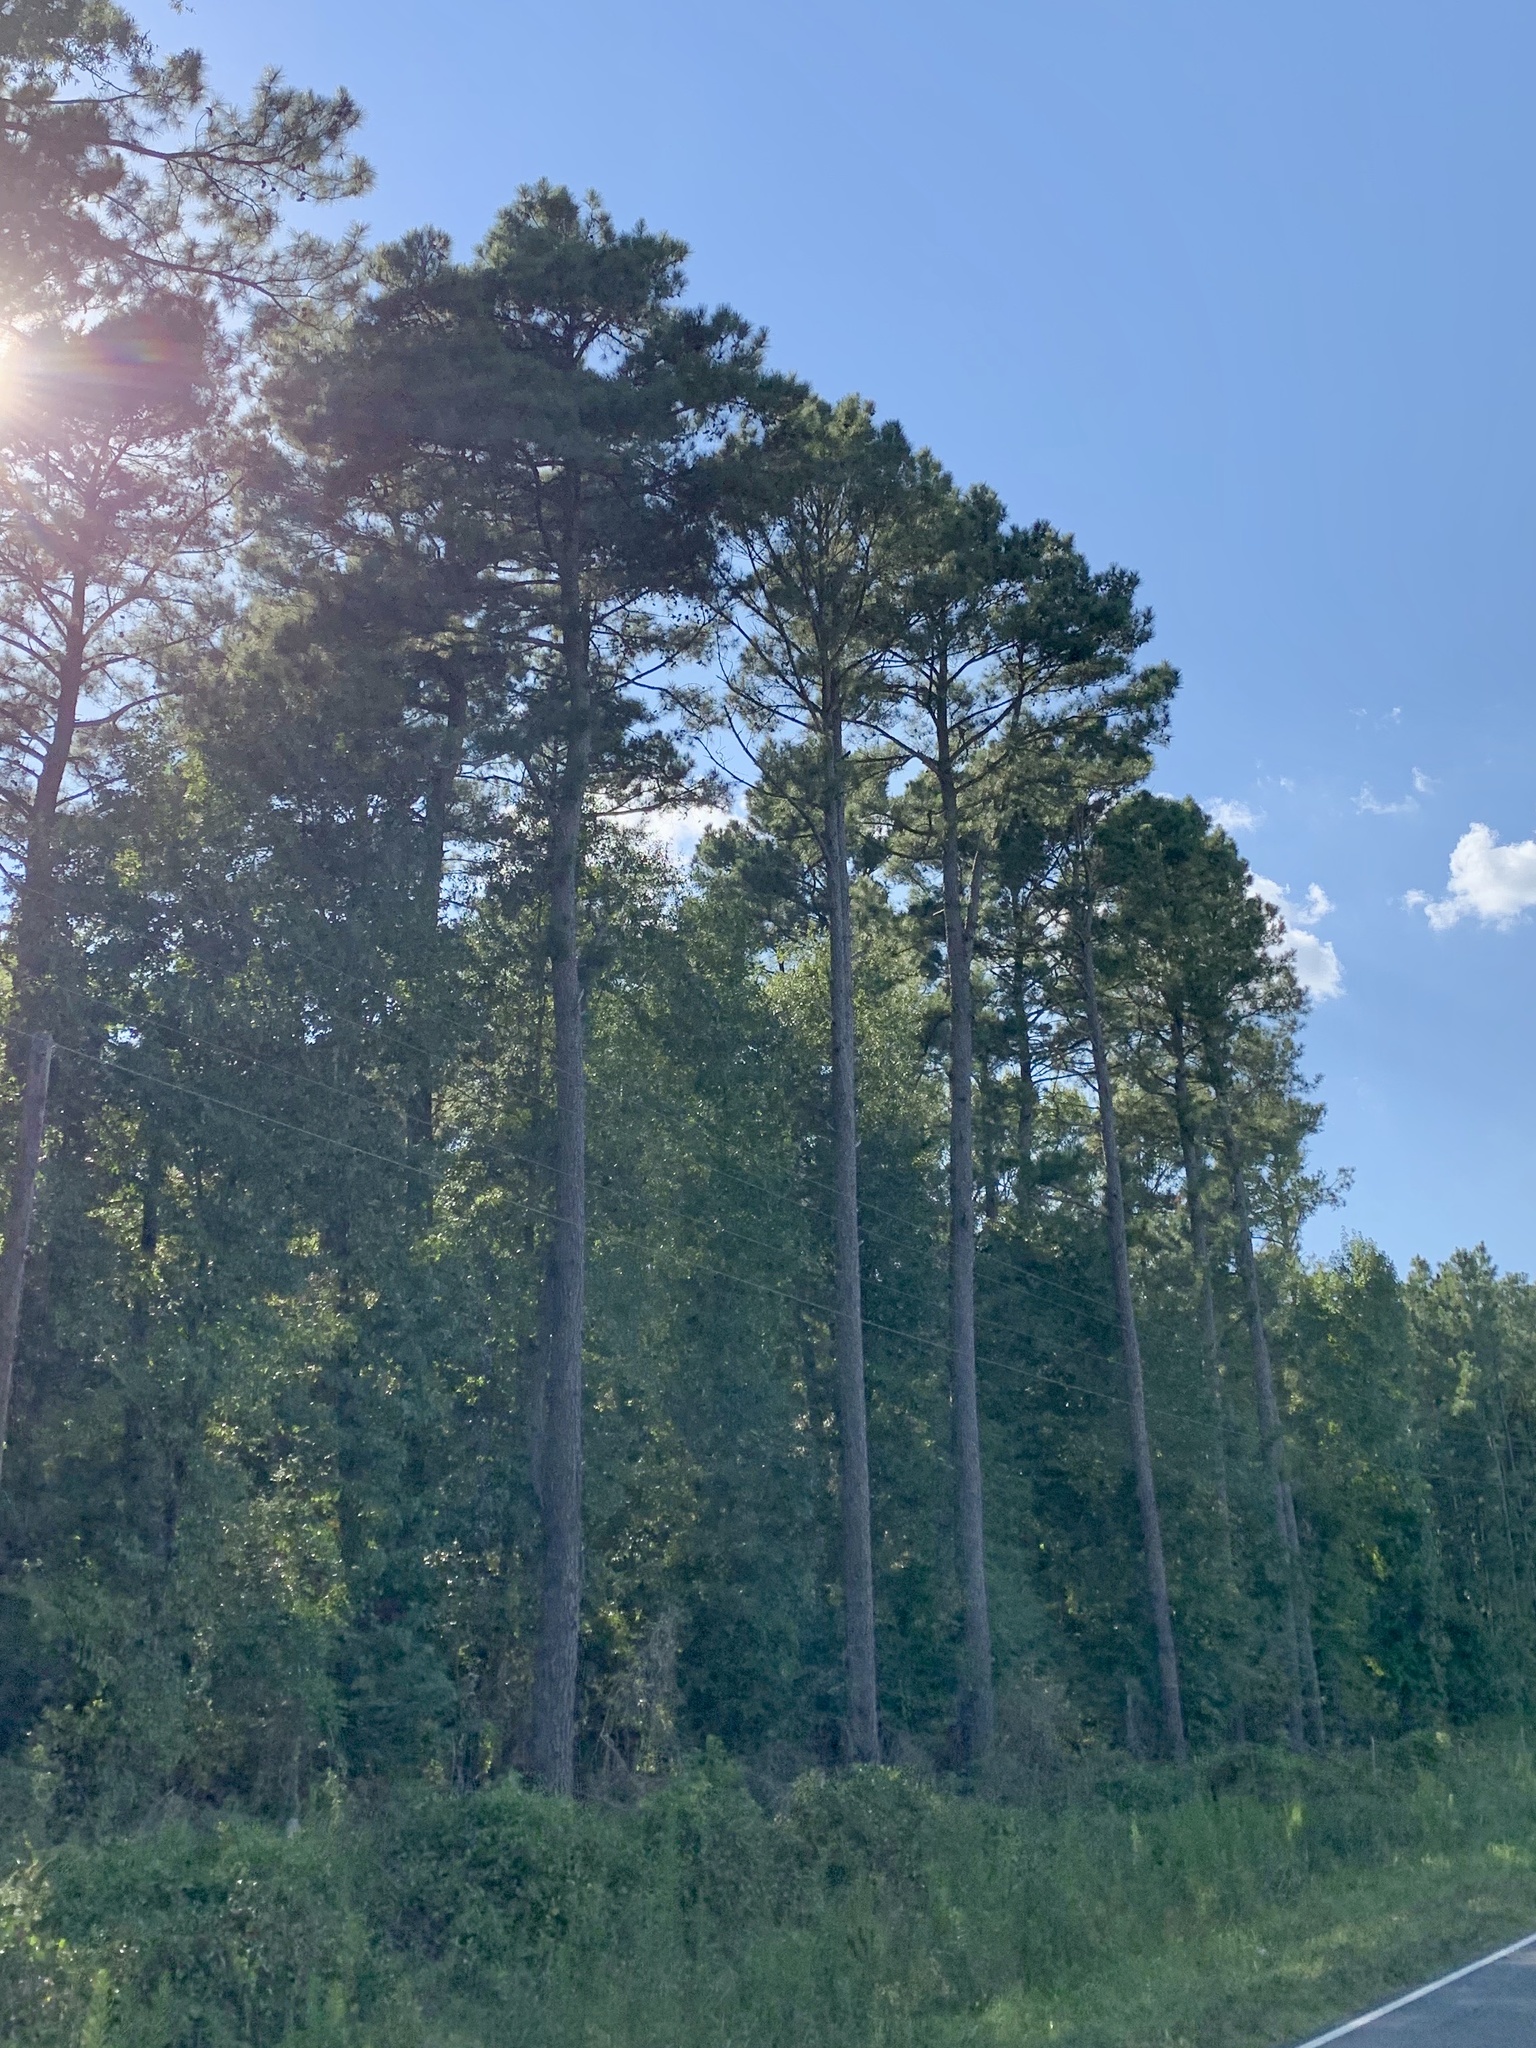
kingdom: Plantae
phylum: Tracheophyta
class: Pinopsida
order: Pinales
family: Pinaceae
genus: Pinus
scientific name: Pinus taeda
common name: Loblolly pine
